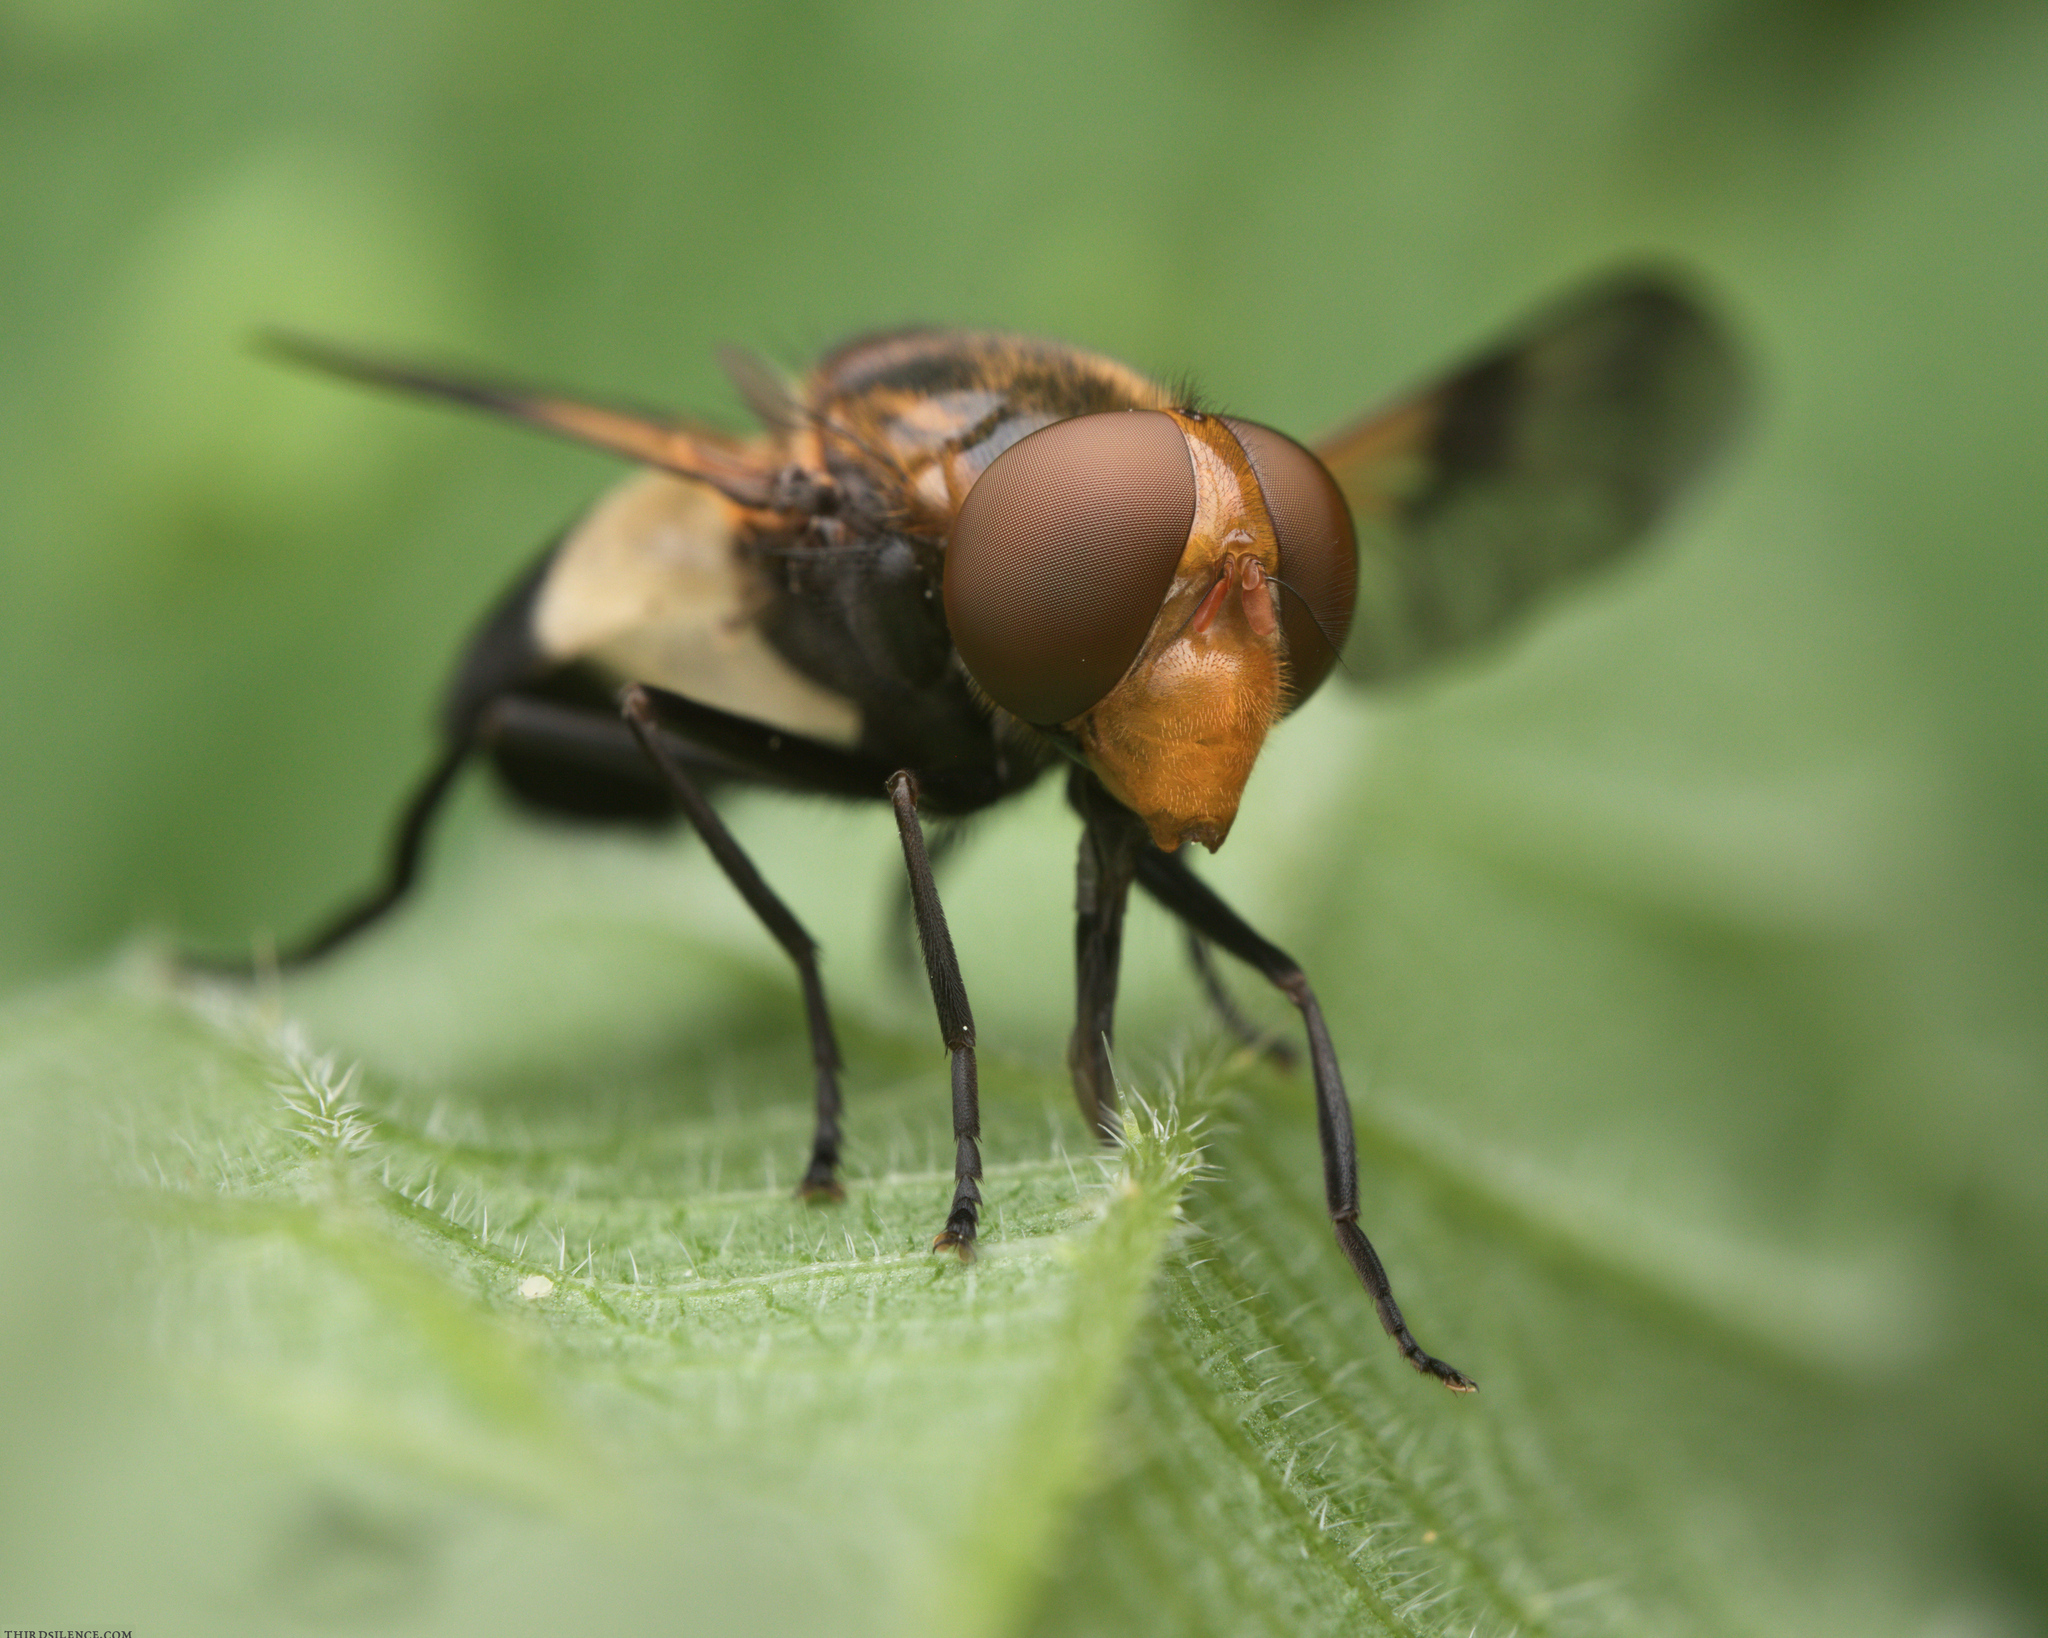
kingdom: Animalia
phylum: Arthropoda
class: Insecta
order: Diptera
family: Syrphidae
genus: Volucella
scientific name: Volucella pellucens
